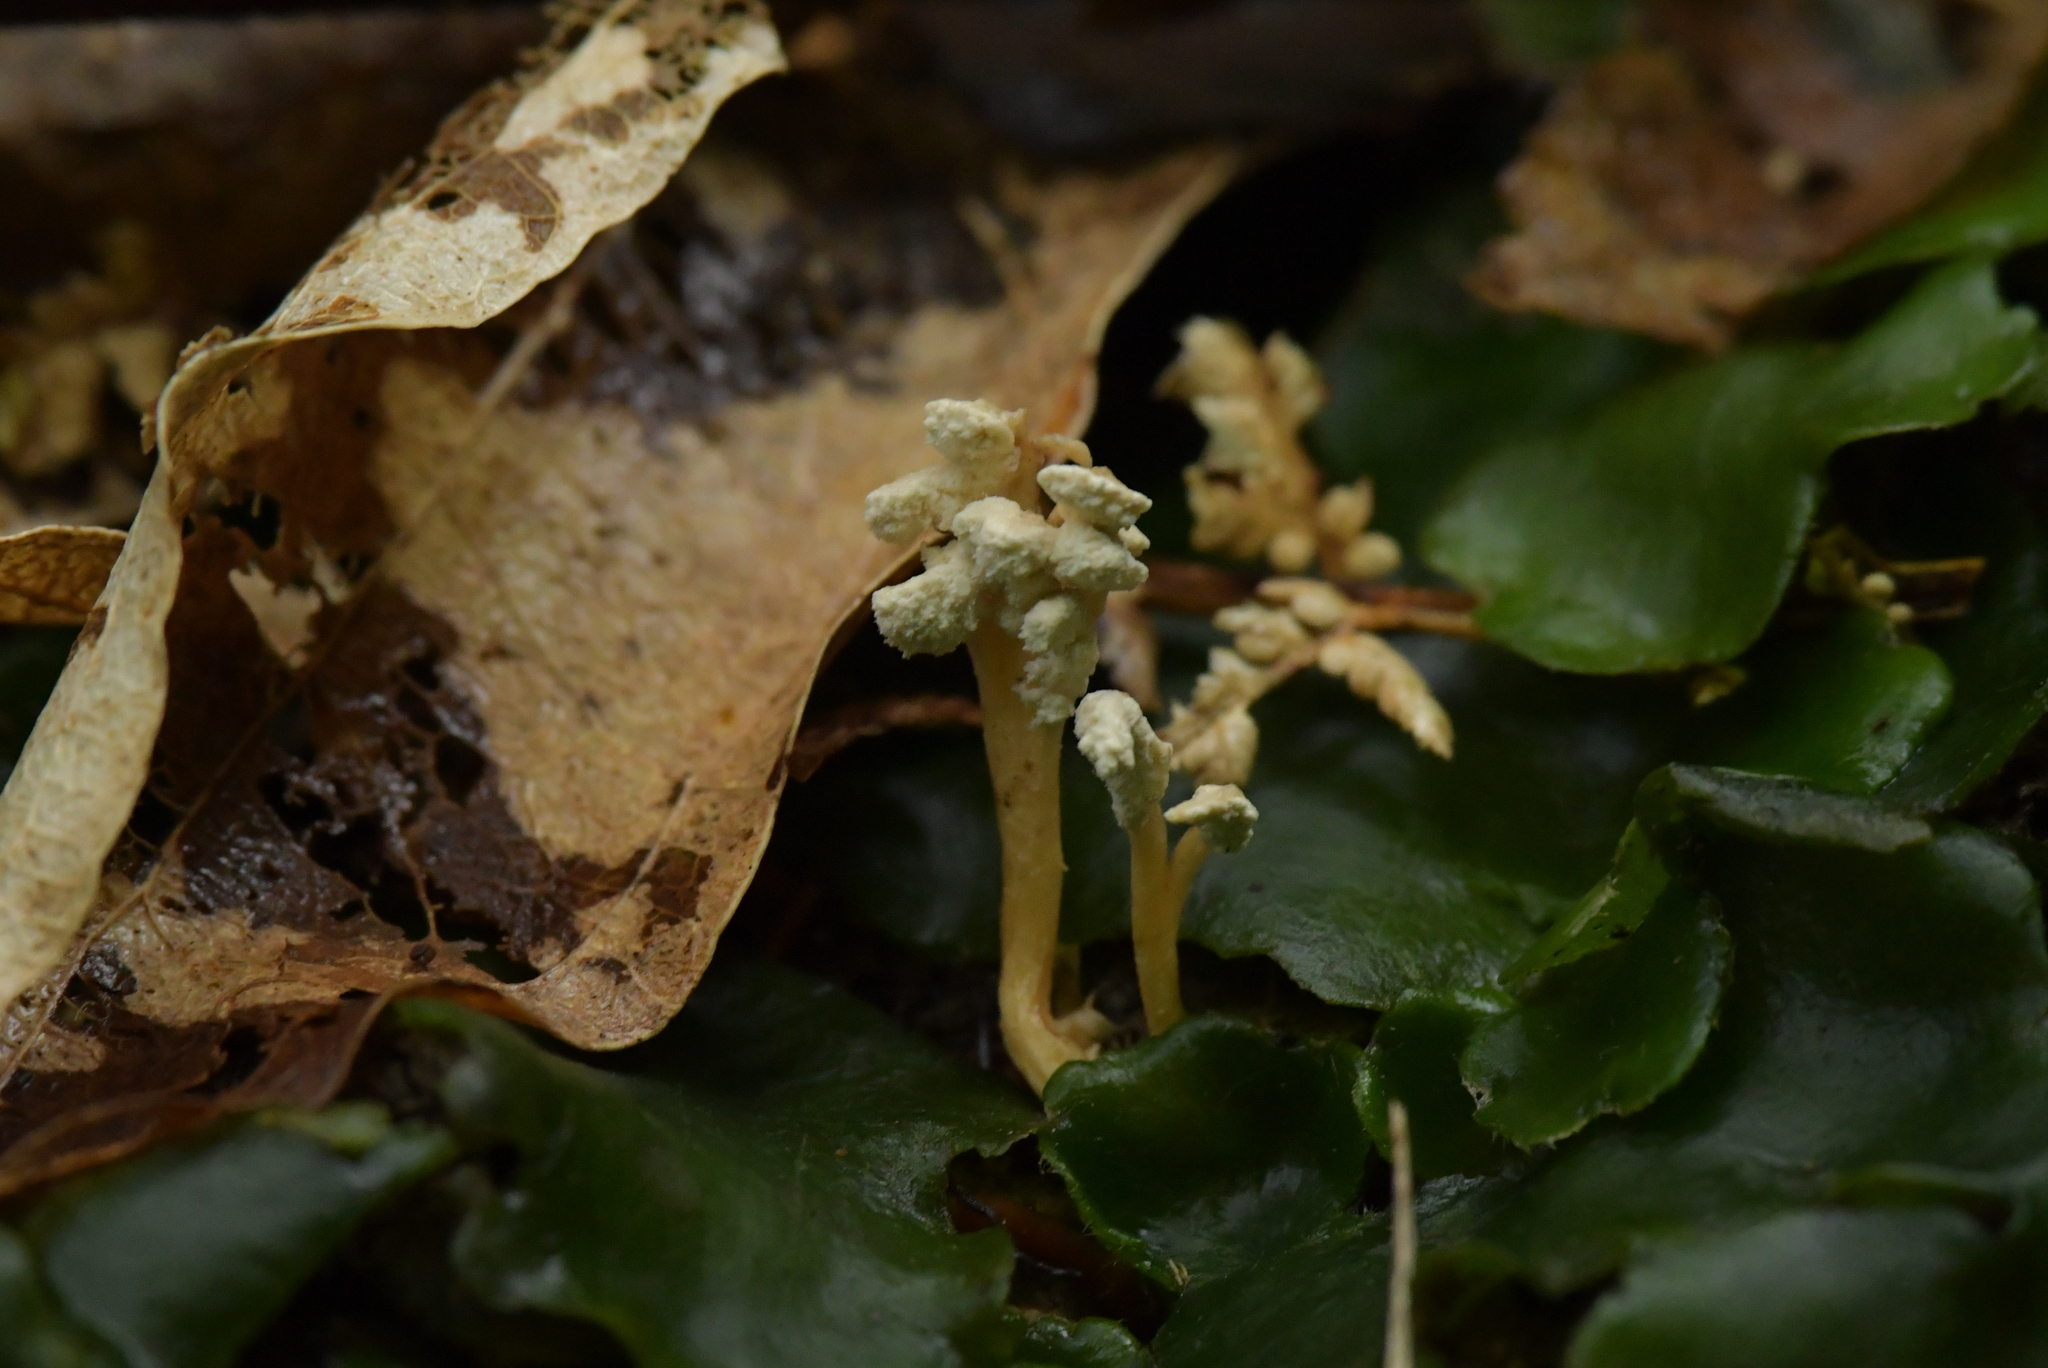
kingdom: Fungi
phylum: Ascomycota
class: Sordariomycetes
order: Hypocreales
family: Cordycipitaceae
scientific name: Cordycipitaceae
